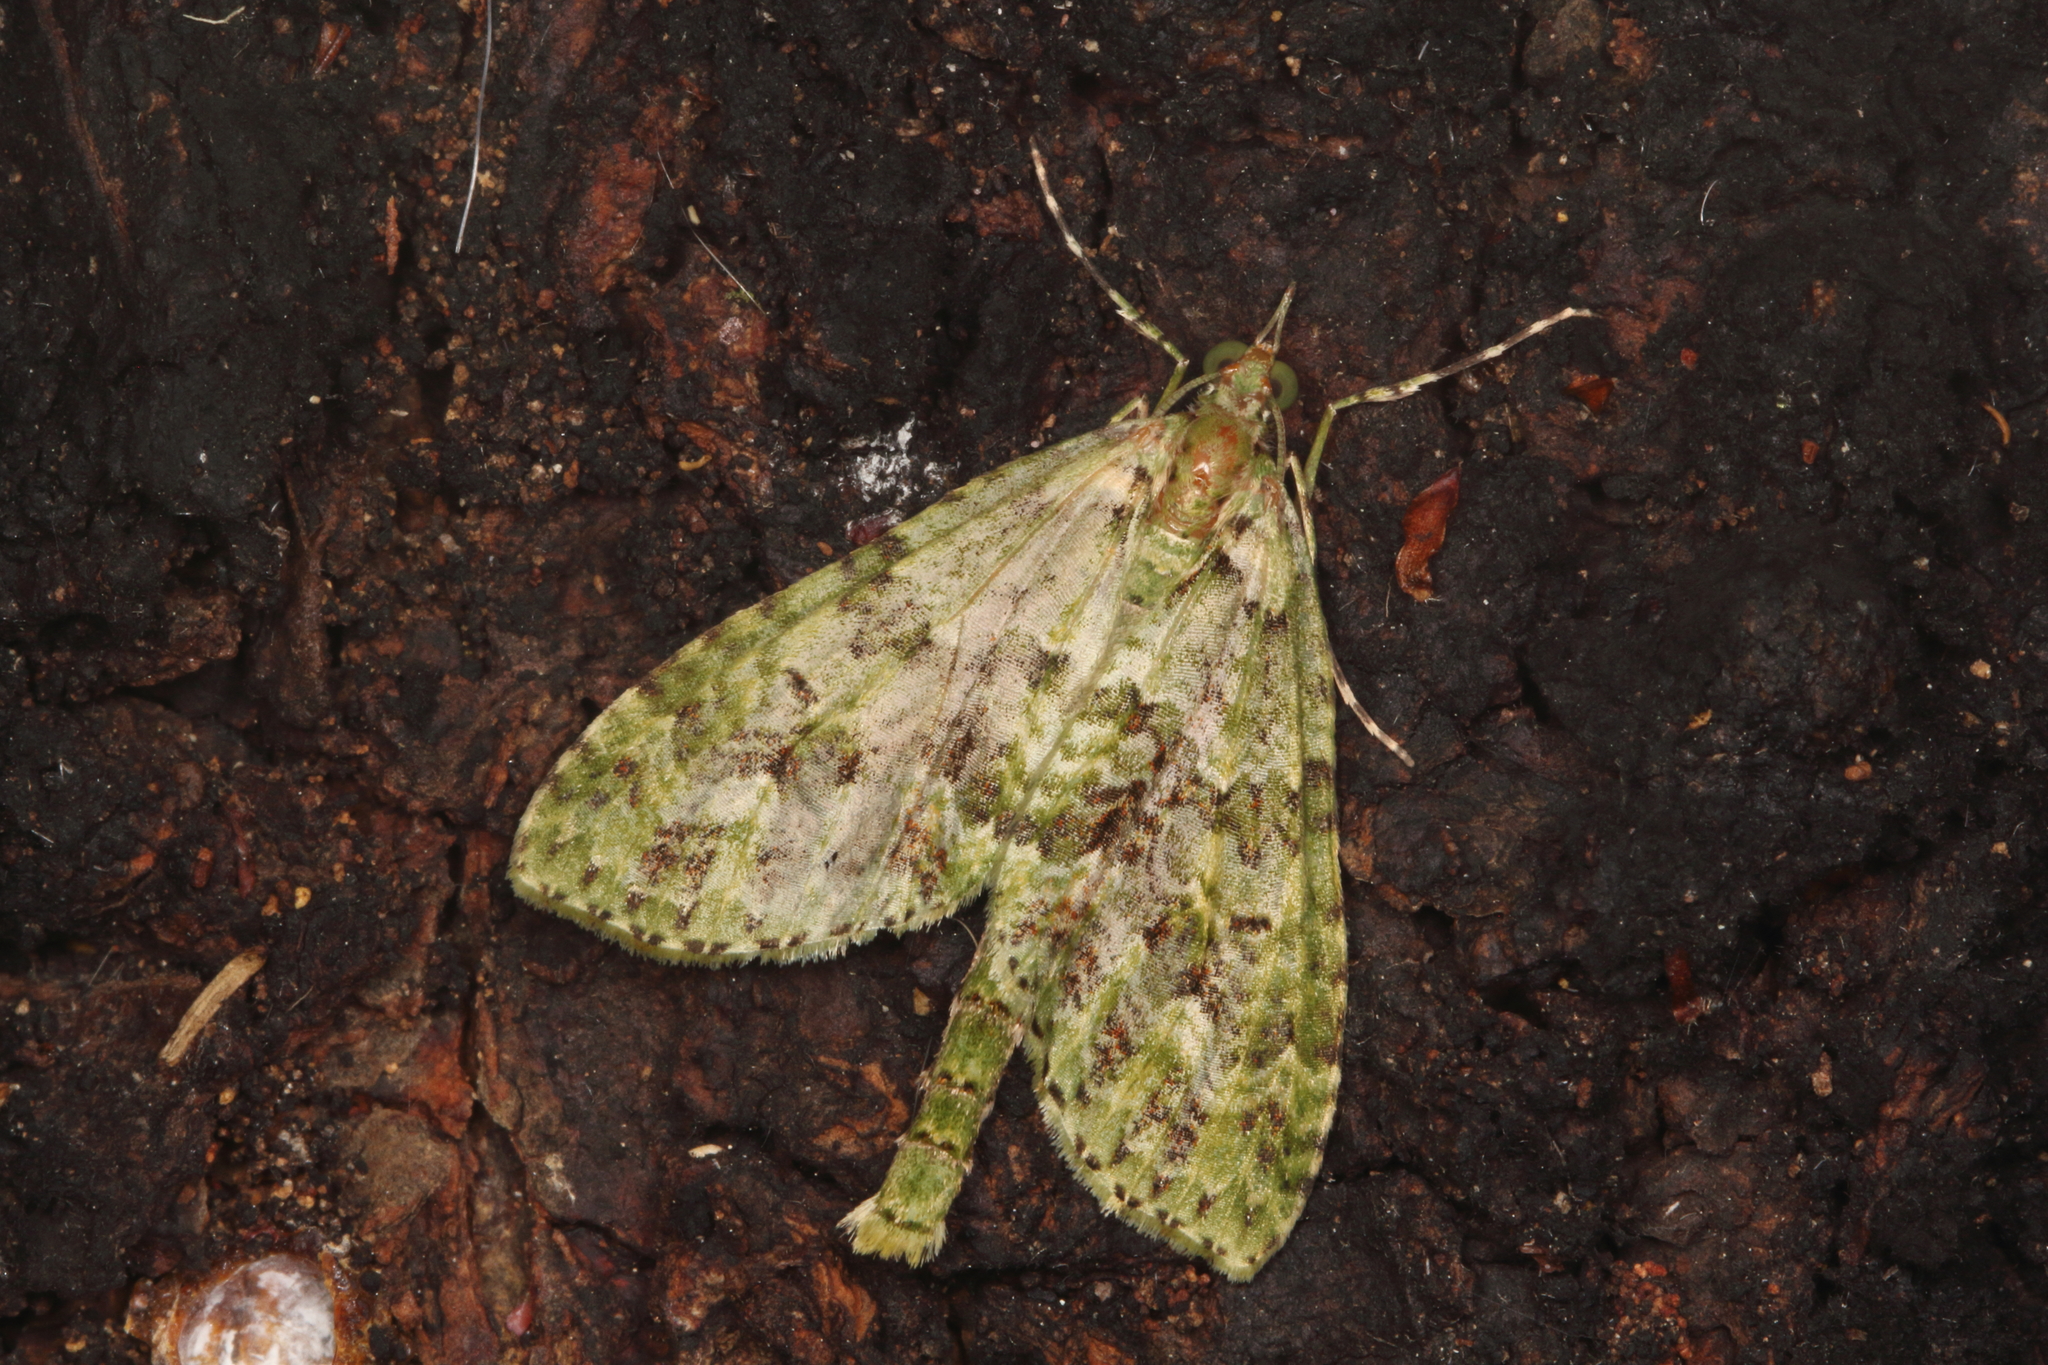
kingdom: Animalia
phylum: Arthropoda
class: Insecta
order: Lepidoptera
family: Geometridae
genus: Tatosoma
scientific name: Tatosoma tipulata
